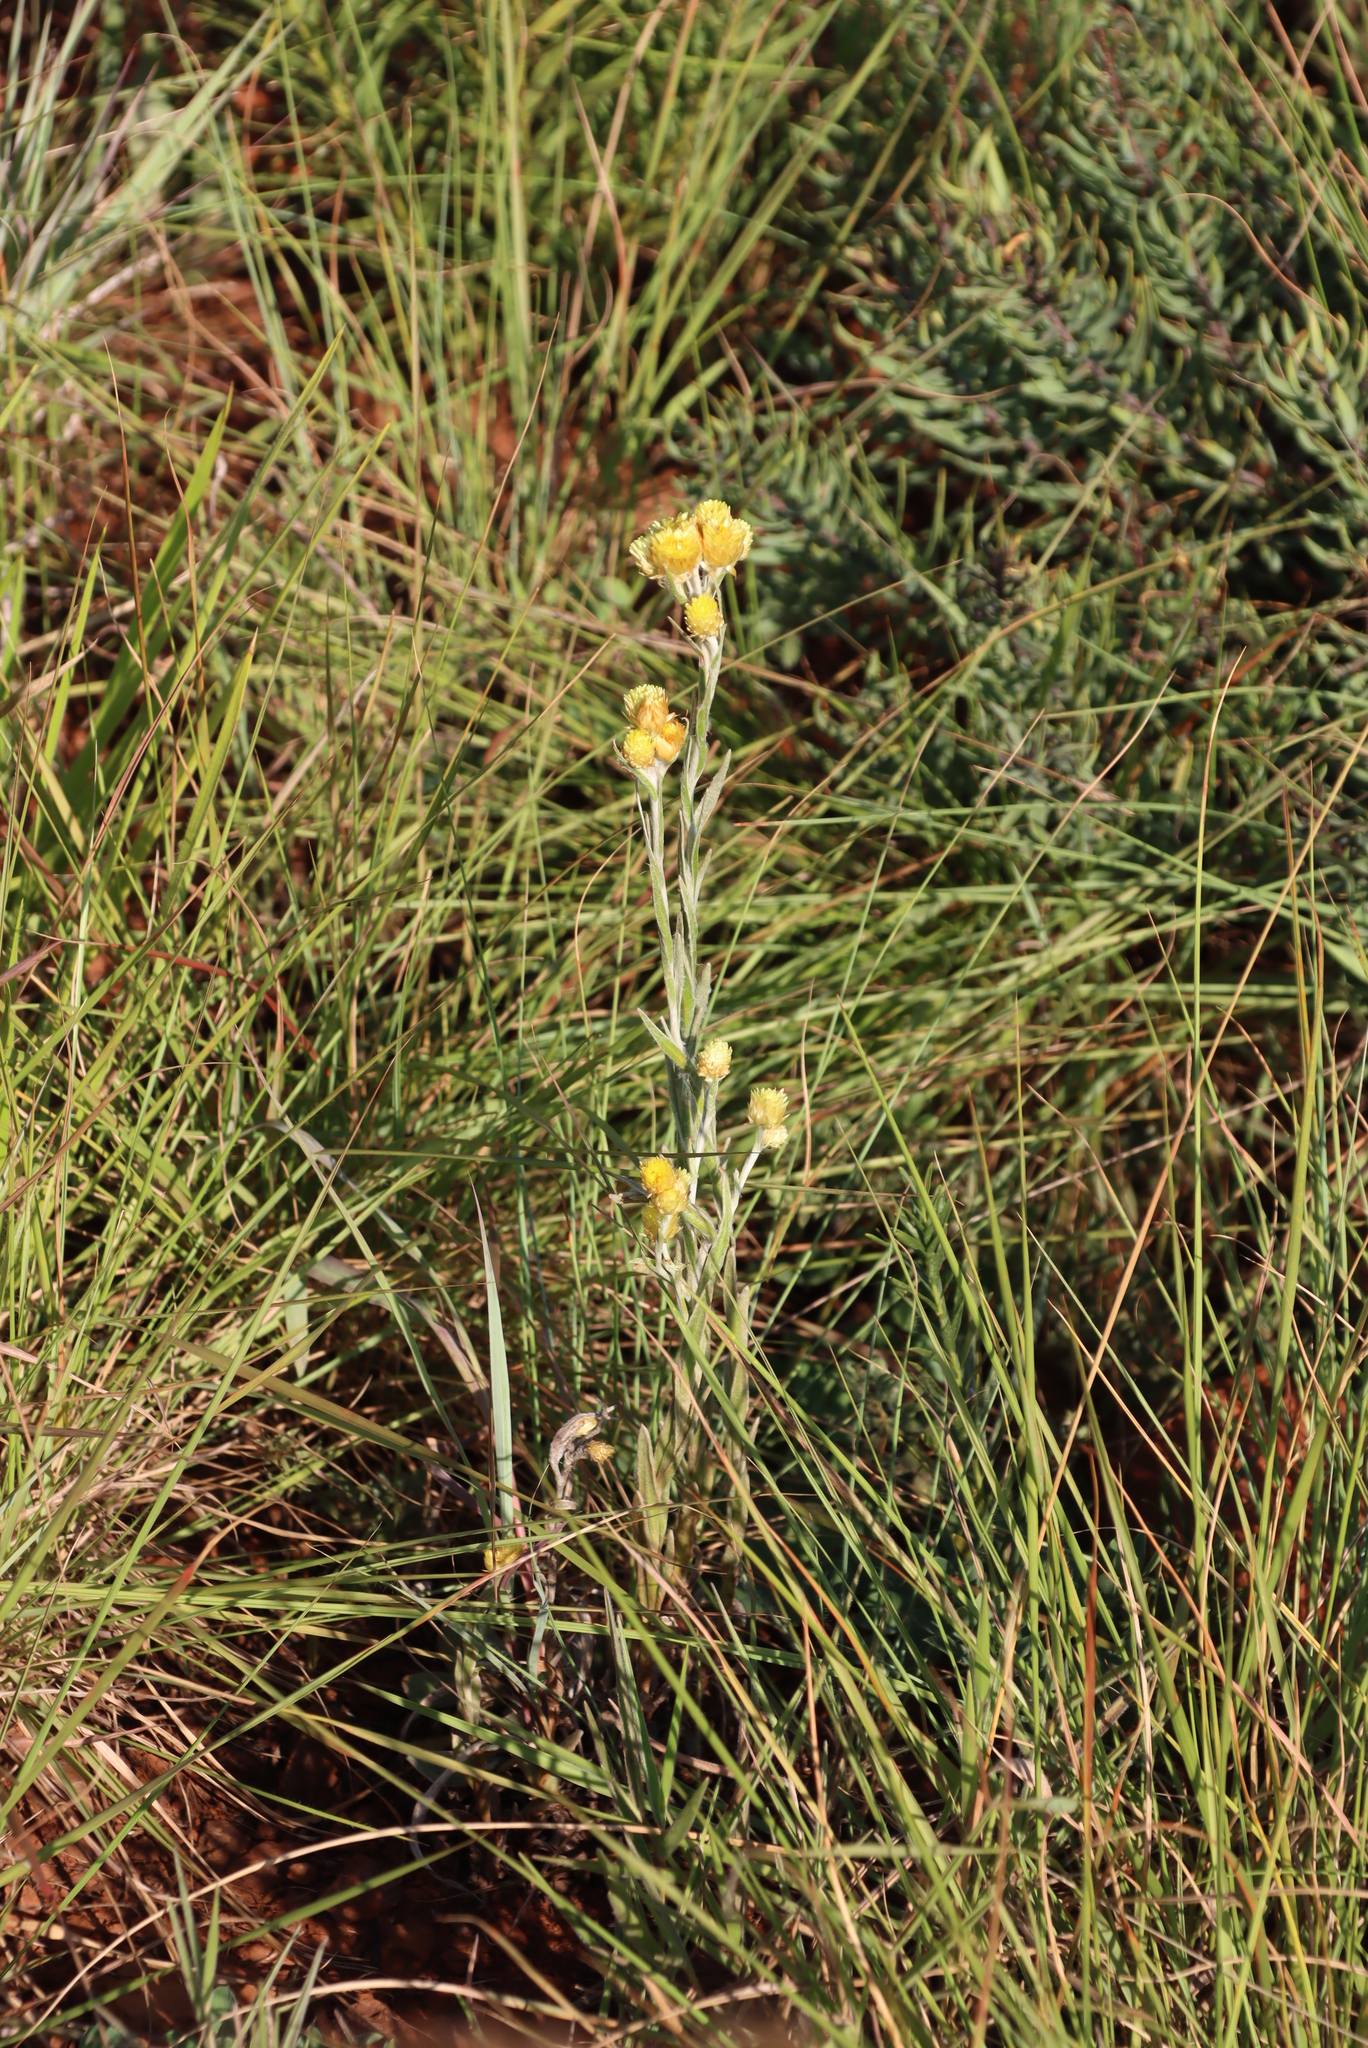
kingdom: Plantae
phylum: Tracheophyta
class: Magnoliopsida
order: Asterales
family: Asteraceae
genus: Helichrysum
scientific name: Helichrysum mixtum
